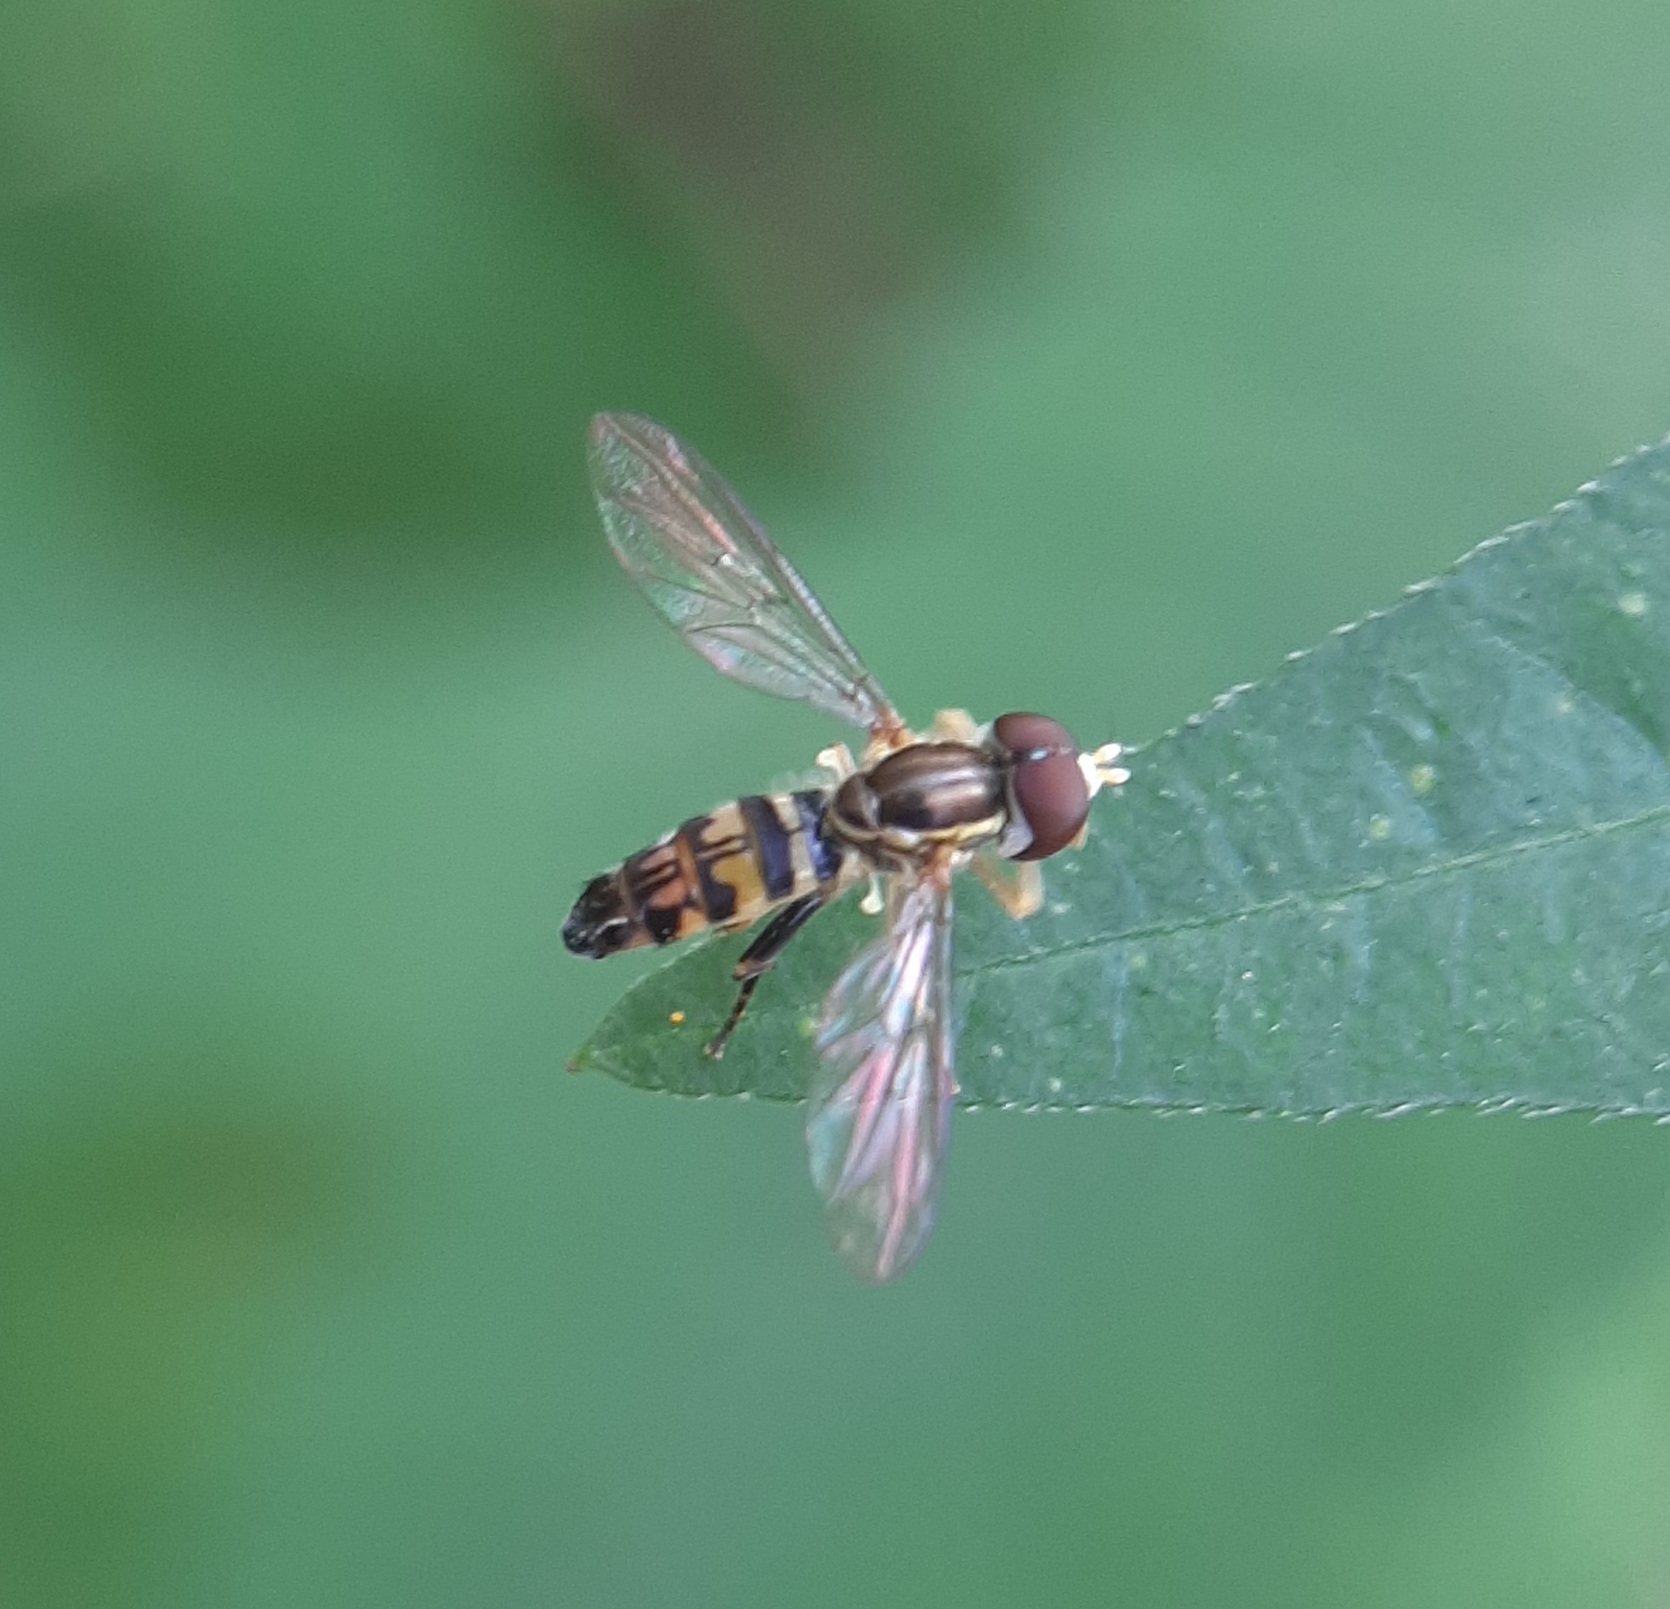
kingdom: Animalia
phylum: Arthropoda
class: Insecta
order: Diptera
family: Syrphidae
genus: Toxomerus
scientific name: Toxomerus geminatus
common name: Eastern calligrapher
